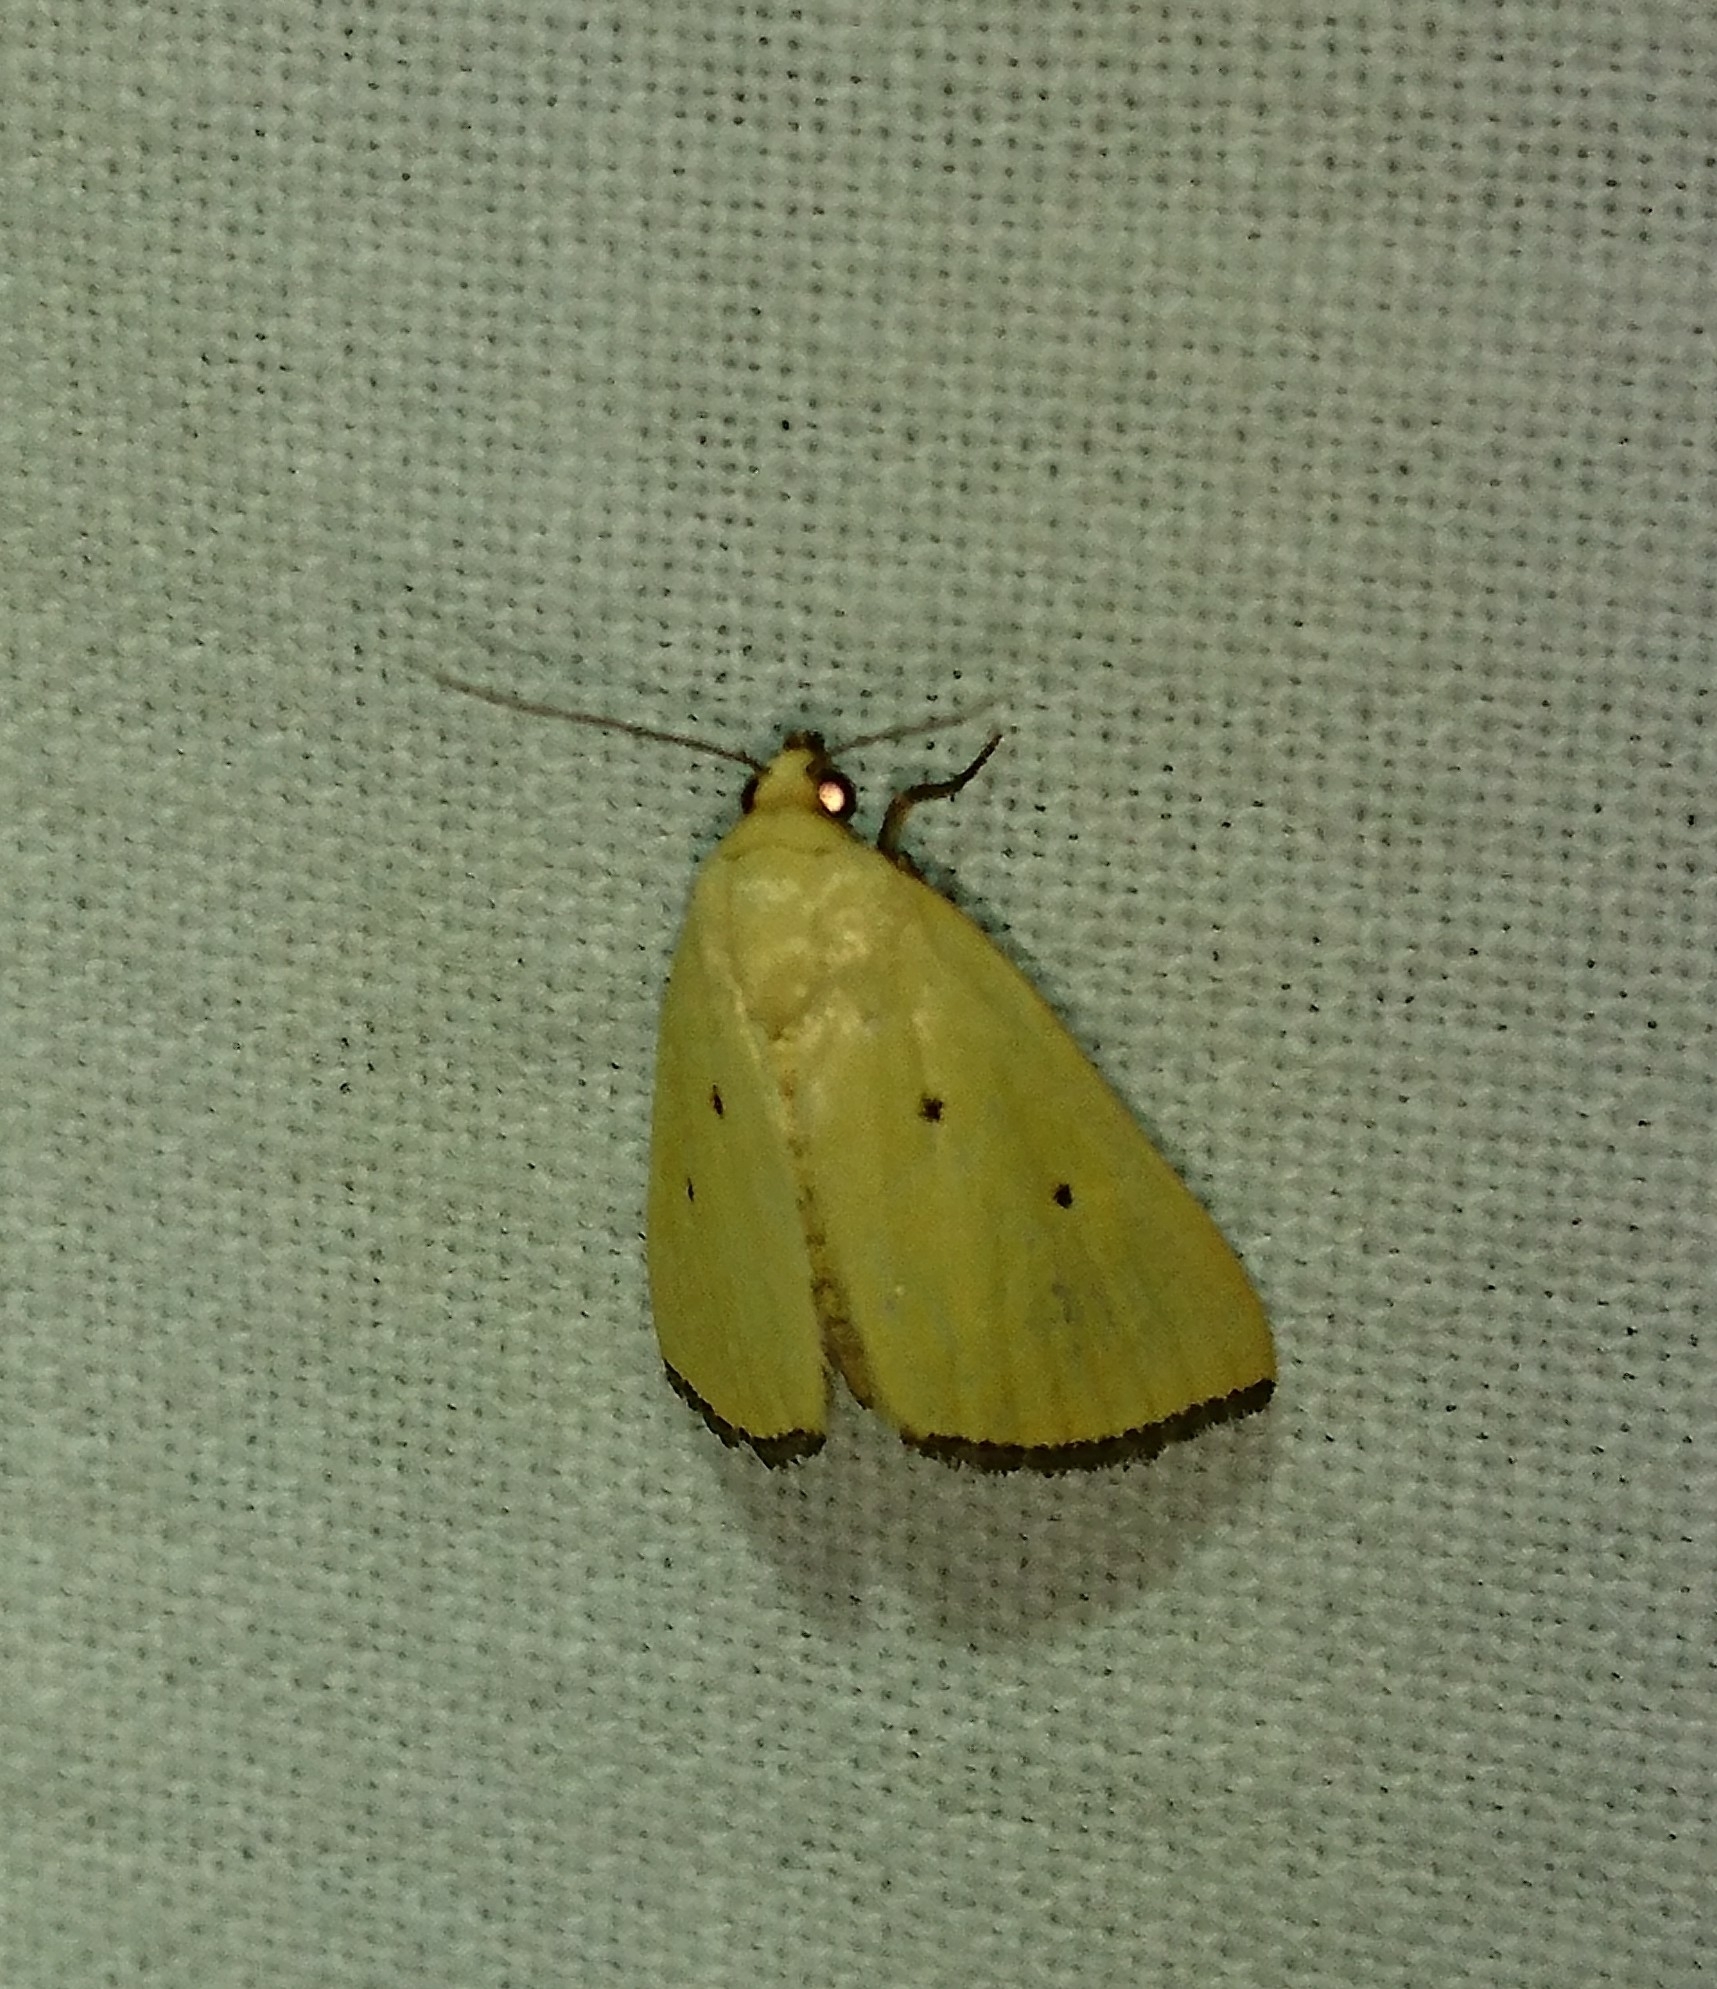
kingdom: Animalia
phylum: Arthropoda
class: Insecta
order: Lepidoptera
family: Noctuidae
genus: Marimatha
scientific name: Marimatha nigrofimbria
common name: Black-bordered lemon moth
